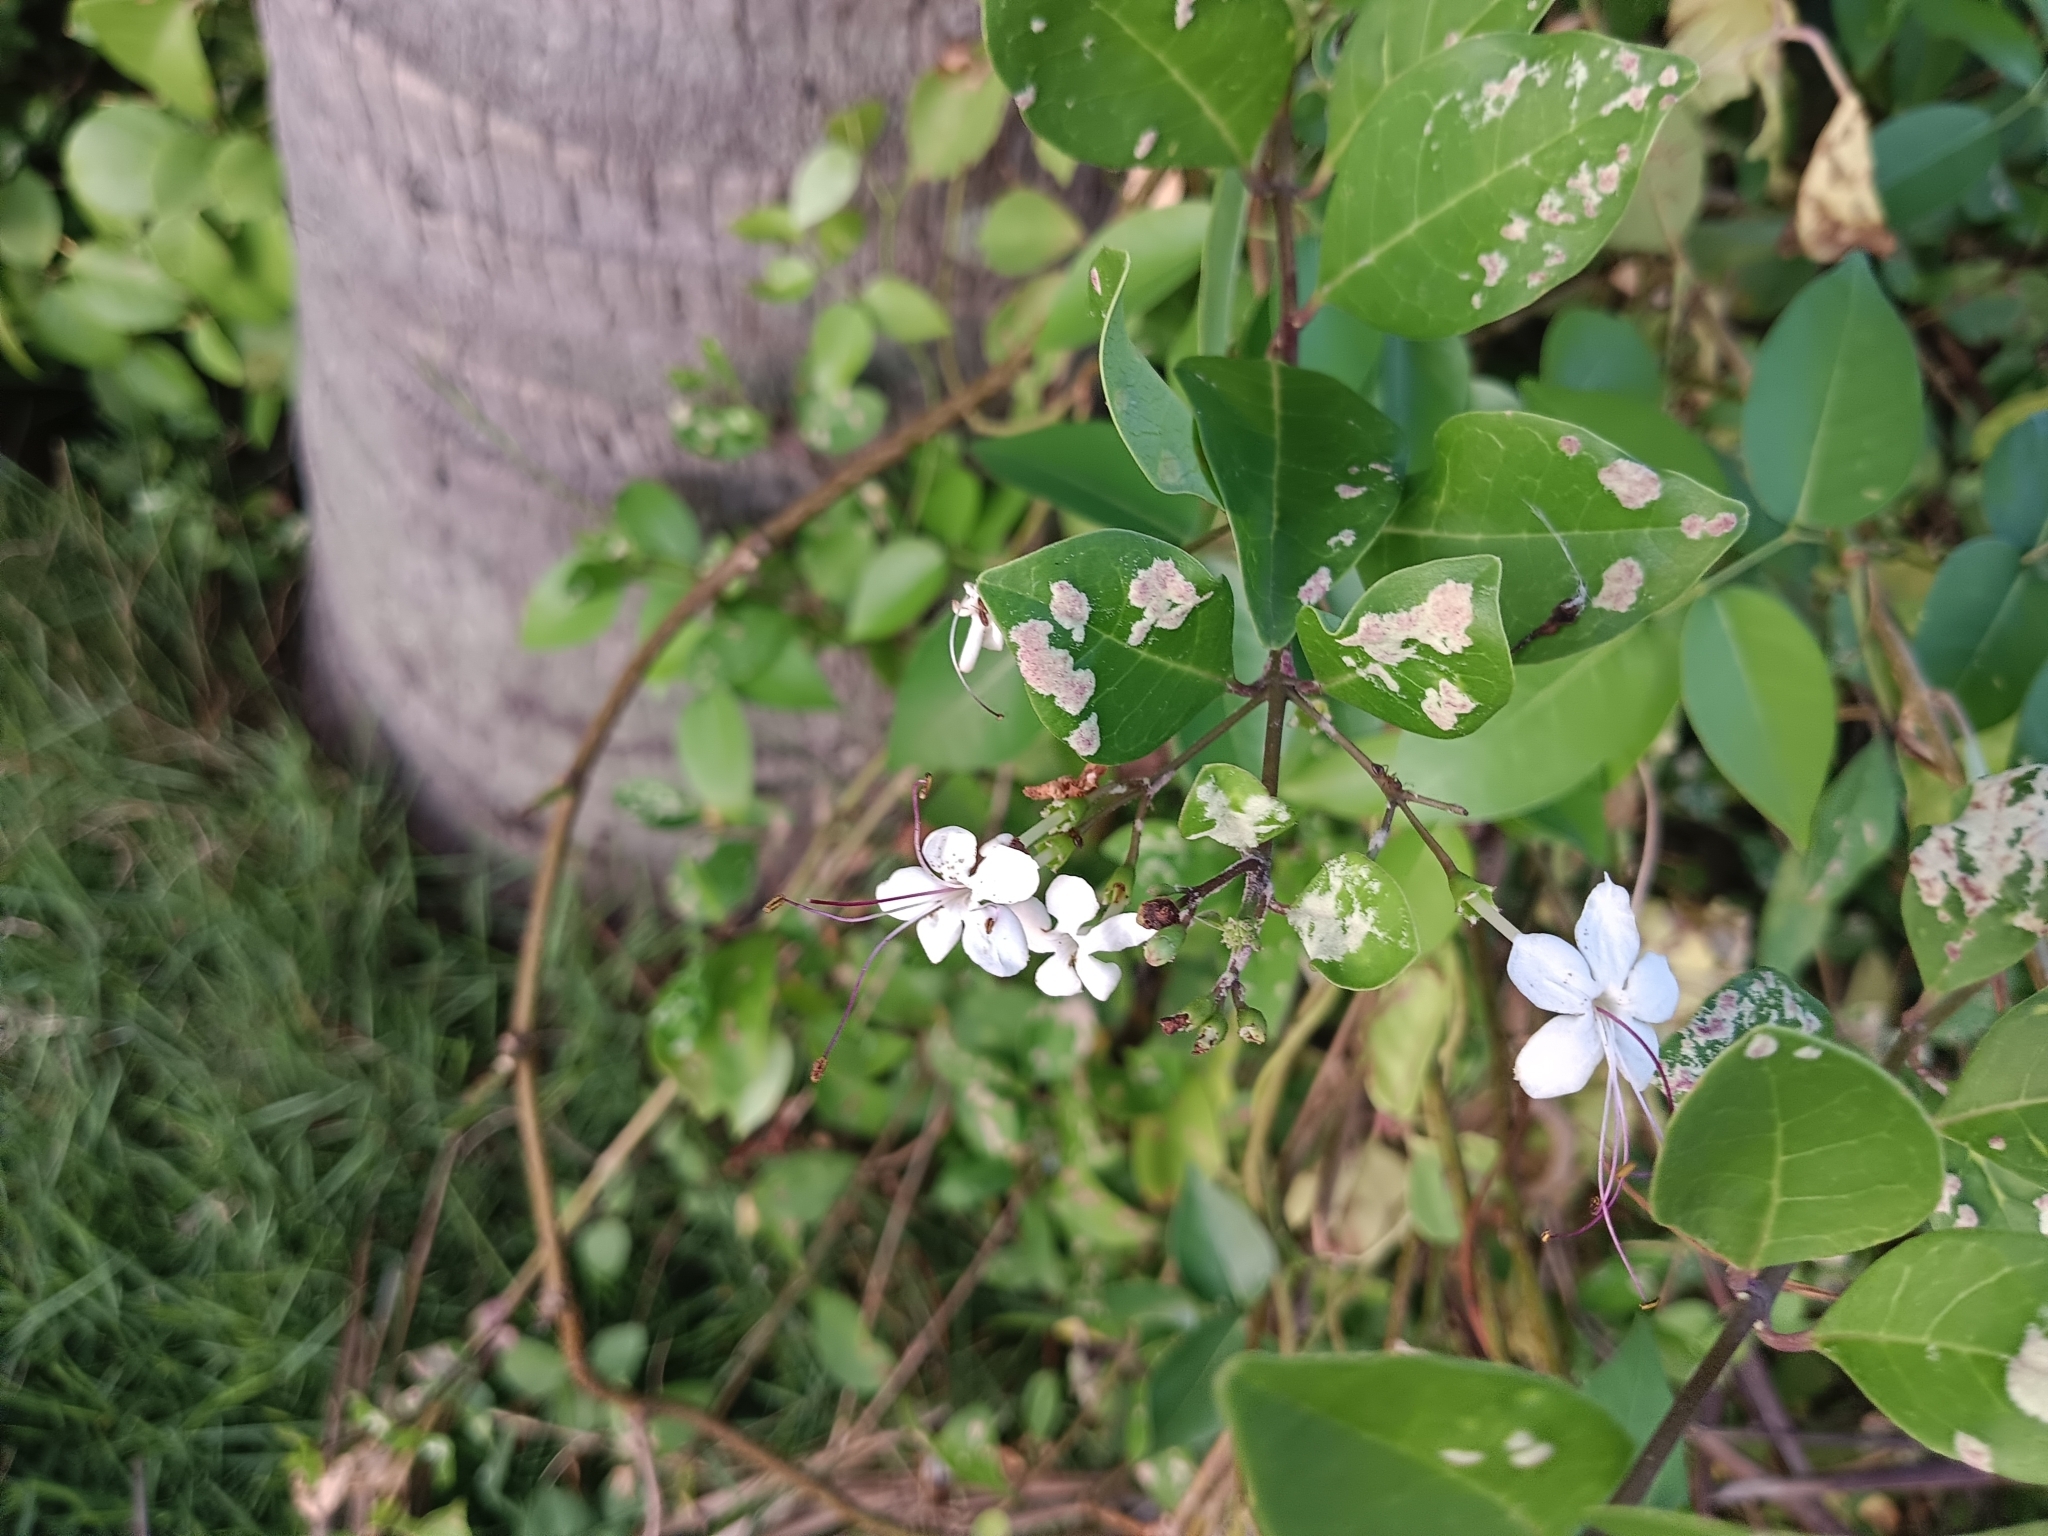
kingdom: Plantae
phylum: Tracheophyta
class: Magnoliopsida
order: Lamiales
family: Lamiaceae
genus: Volkameria
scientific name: Volkameria inermis
